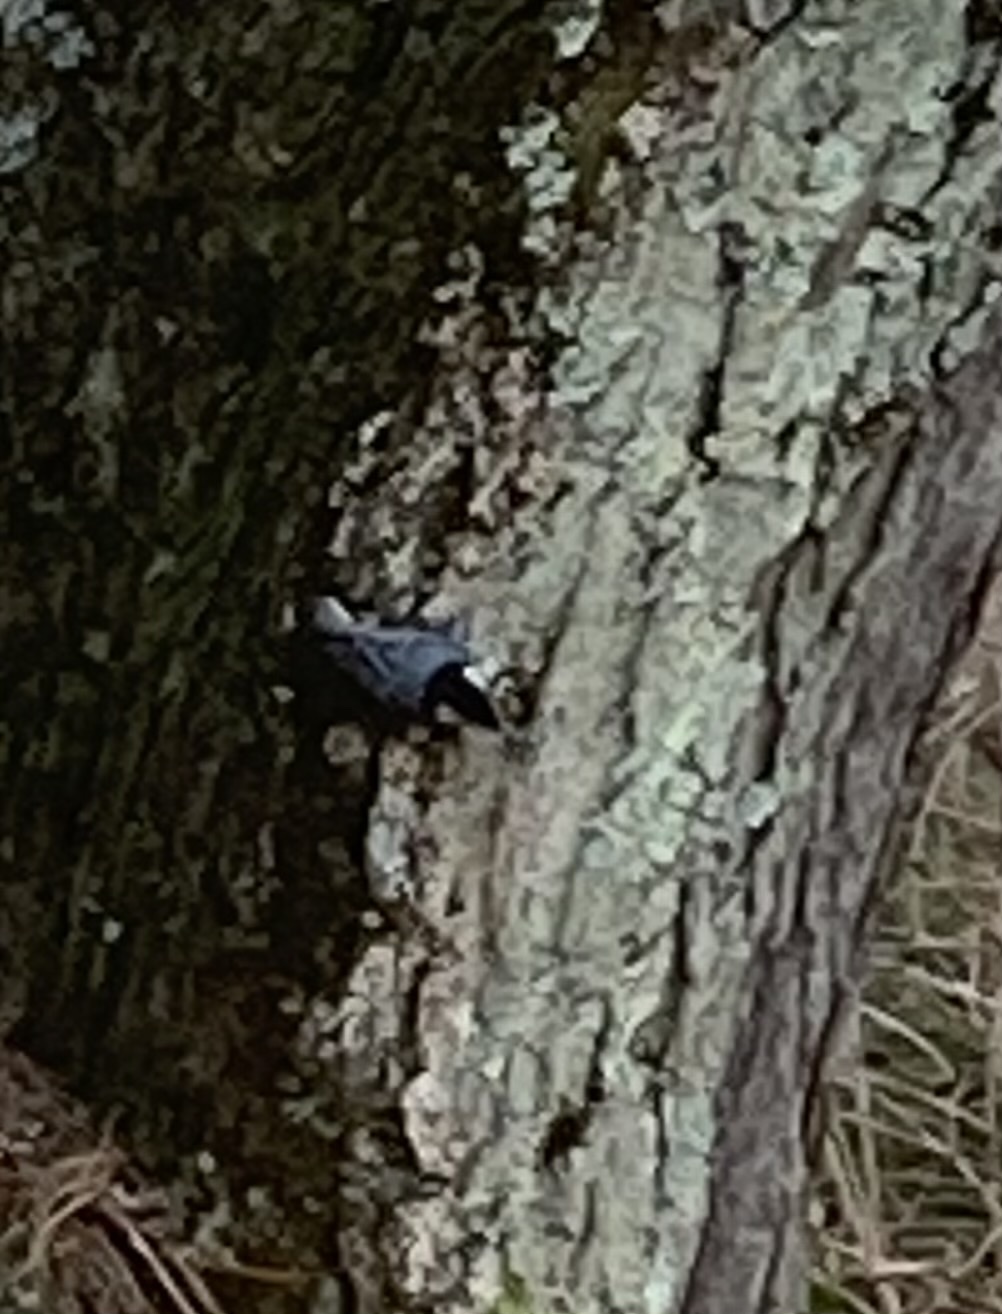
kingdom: Animalia
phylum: Chordata
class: Aves
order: Passeriformes
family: Sittidae
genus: Sitta
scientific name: Sitta carolinensis
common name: White-breasted nuthatch
